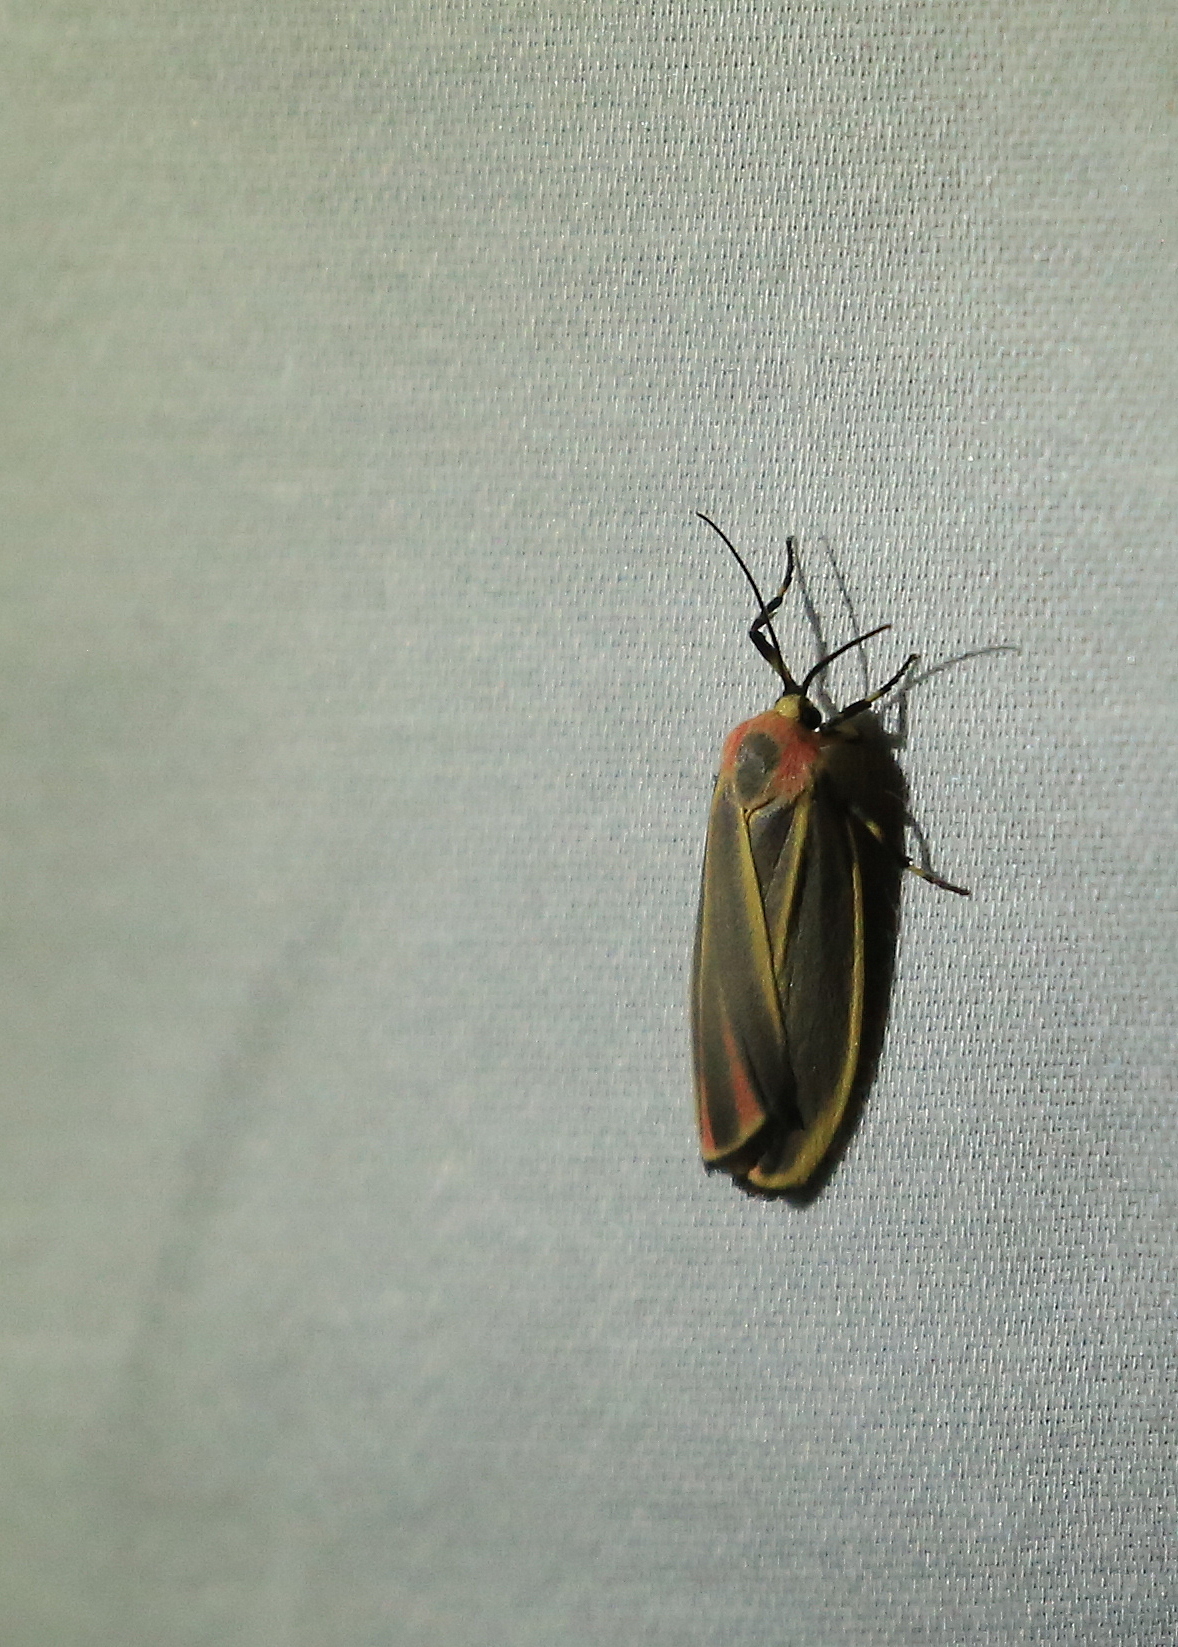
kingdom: Animalia
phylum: Arthropoda
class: Insecta
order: Lepidoptera
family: Erebidae
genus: Hypoprepia
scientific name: Hypoprepia fucosa
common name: Painted lichen moth
